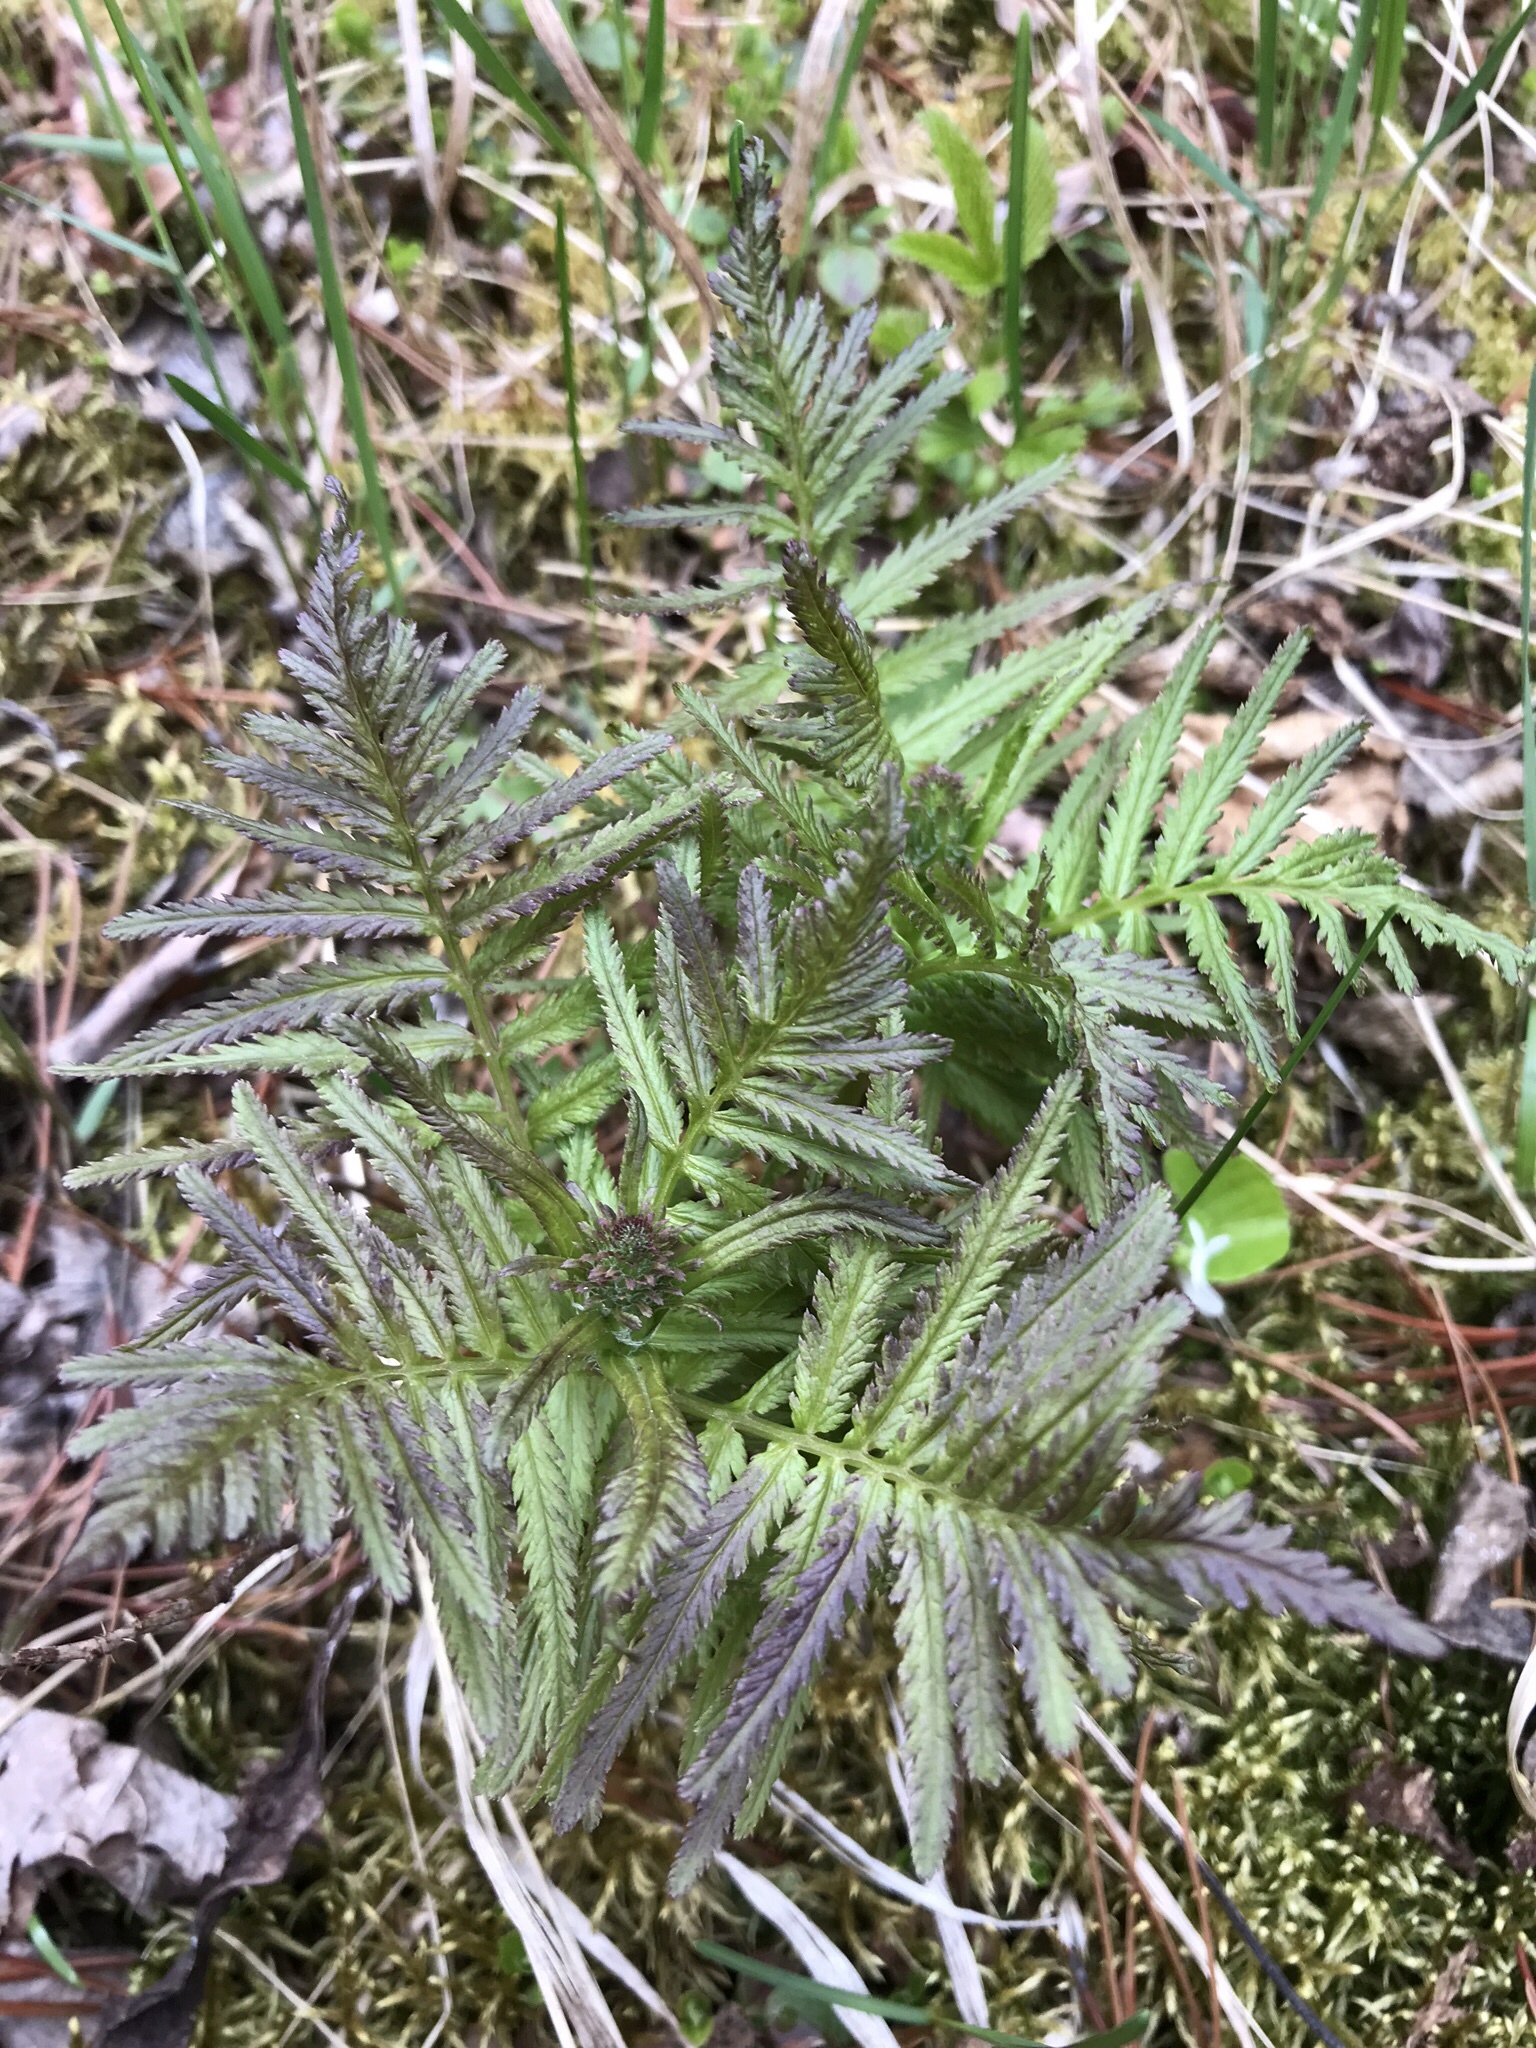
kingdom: Plantae
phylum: Tracheophyta
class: Magnoliopsida
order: Lamiales
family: Orobanchaceae
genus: Pedicularis
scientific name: Pedicularis bracteosa
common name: Bracted lousewort
